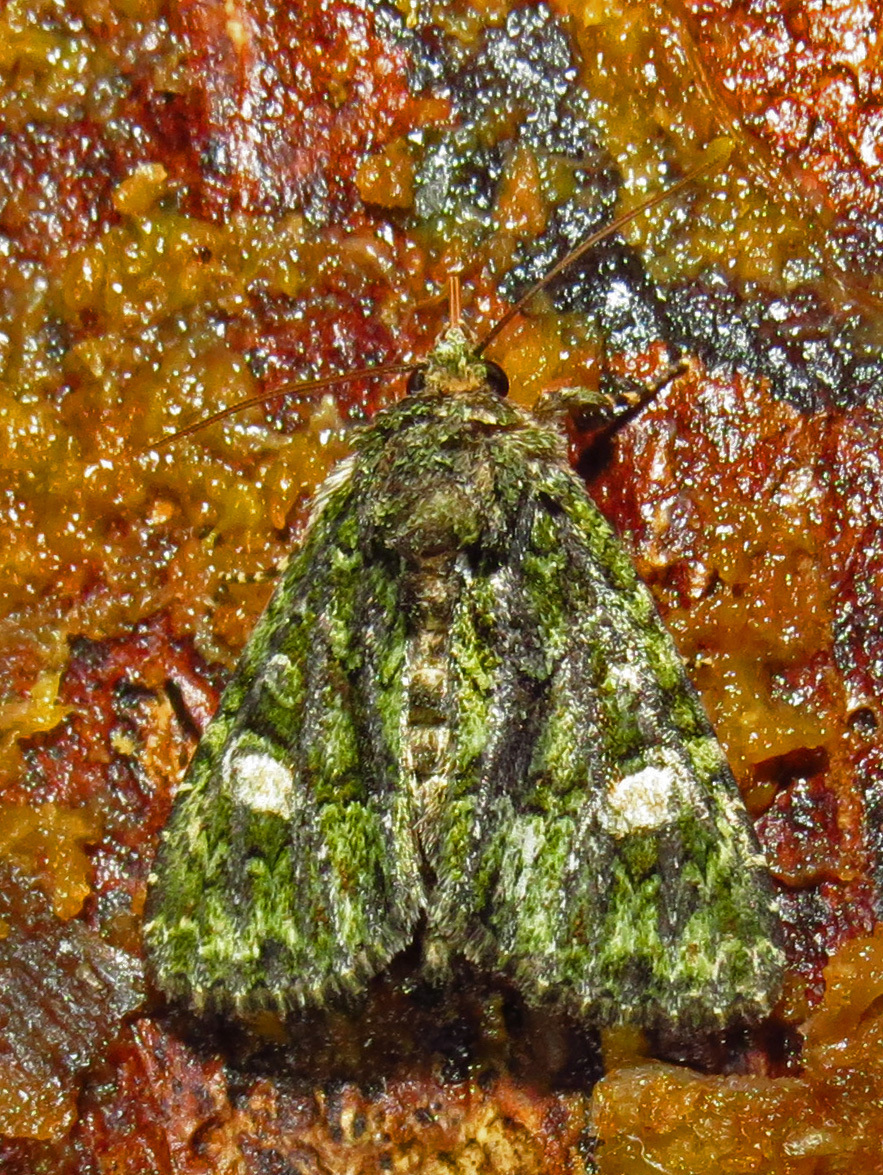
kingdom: Animalia
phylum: Arthropoda
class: Insecta
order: Lepidoptera
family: Noctuidae
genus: Phosphila
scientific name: Phosphila miselioides
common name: Spotted phosphila moth
